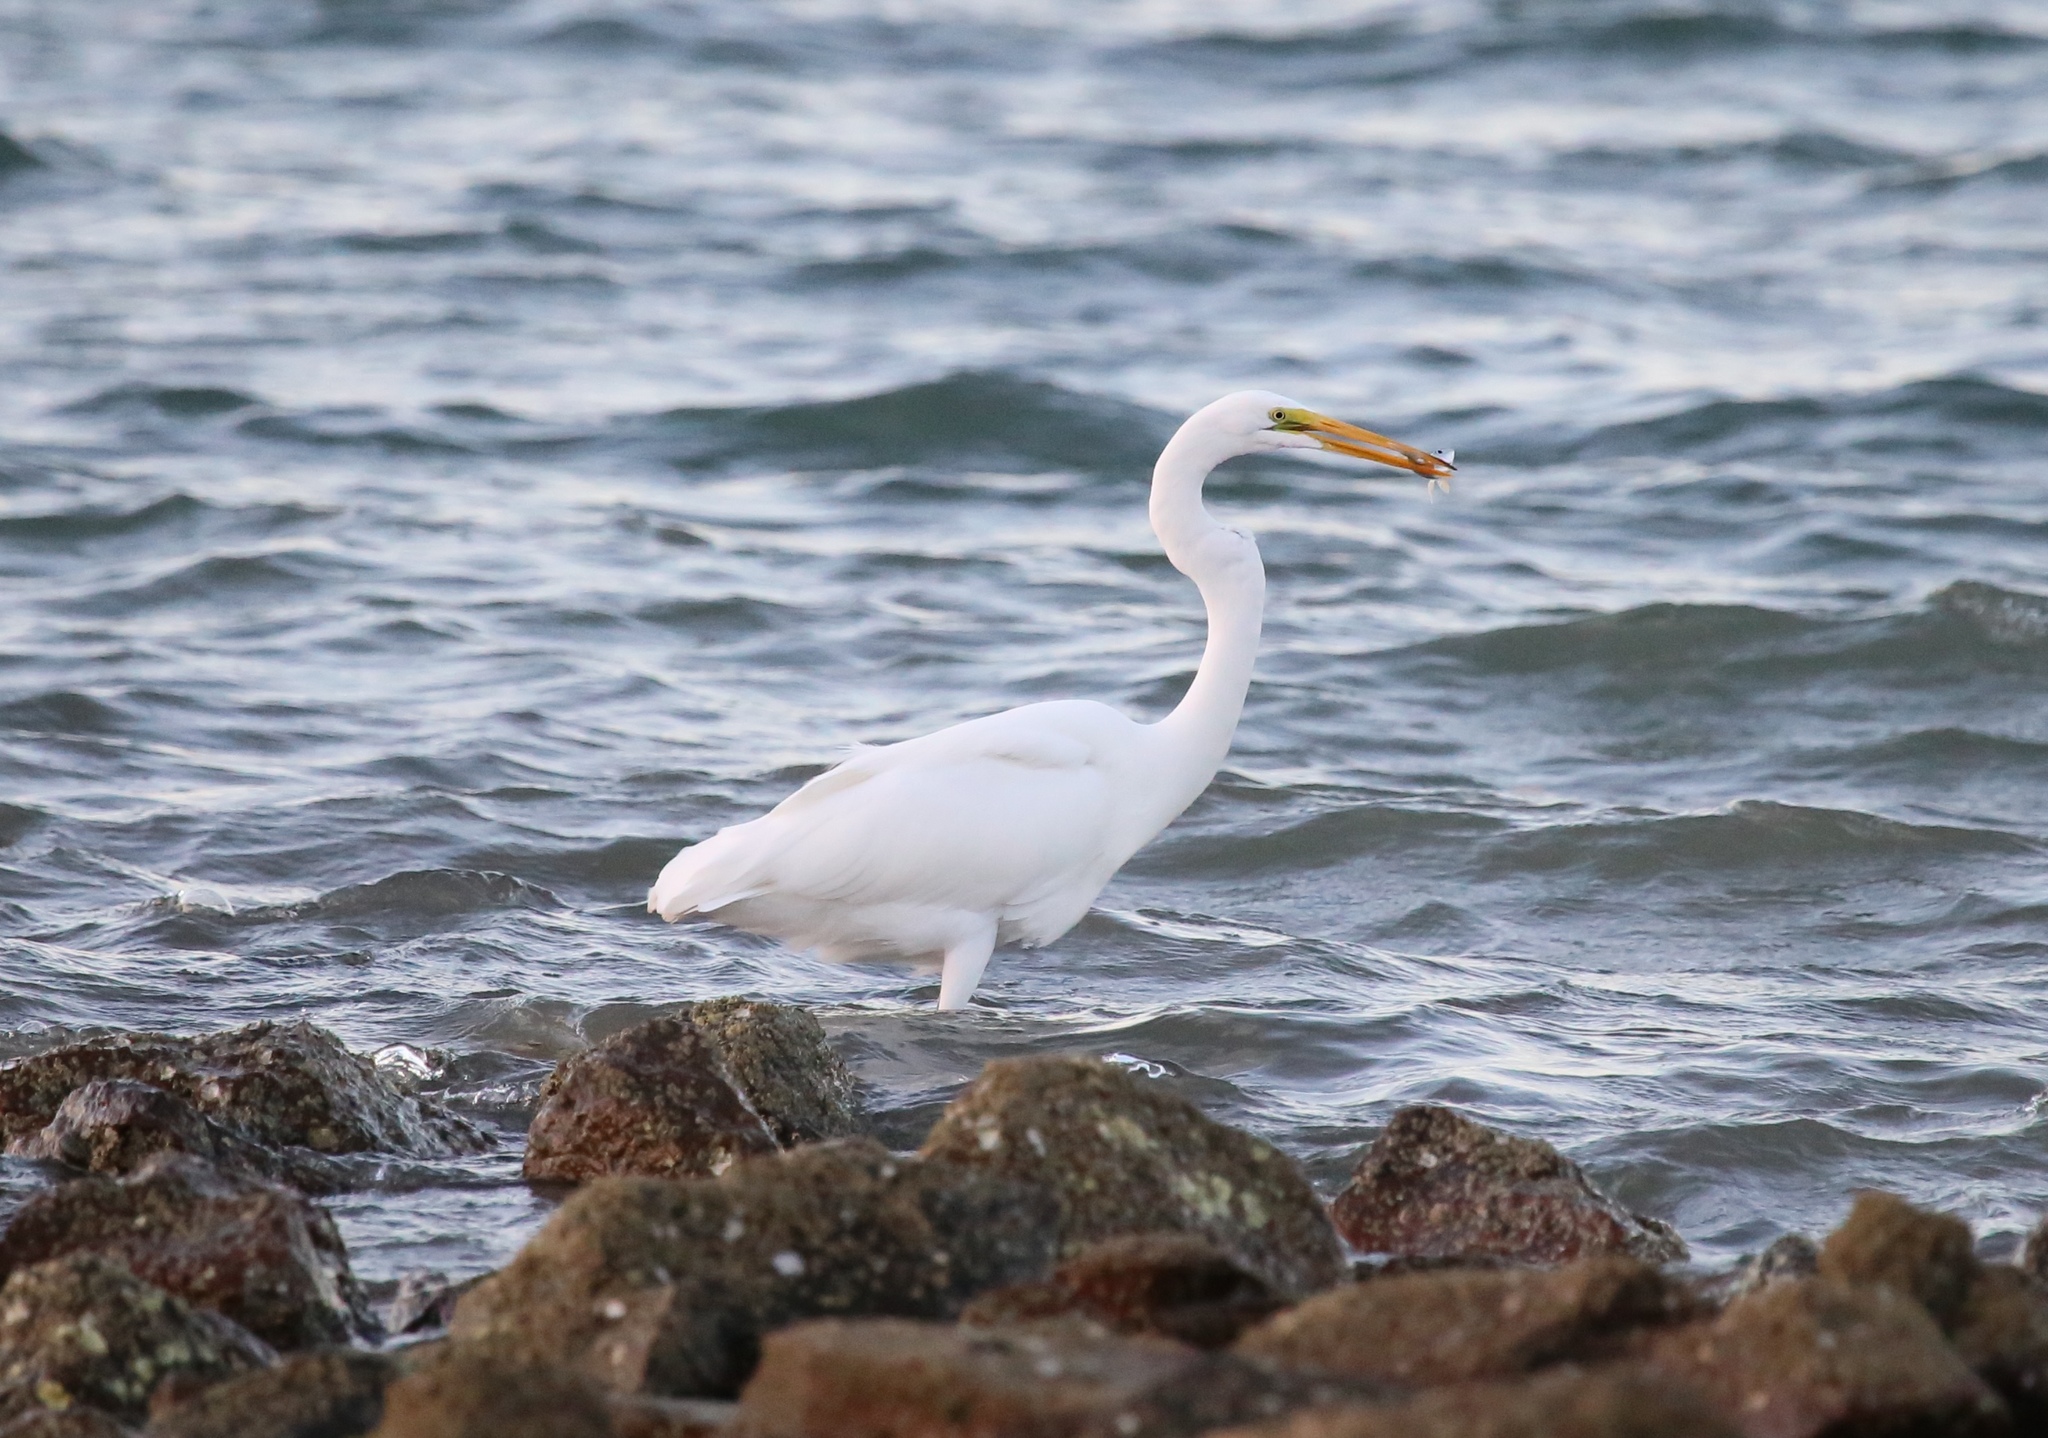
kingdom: Animalia
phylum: Chordata
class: Aves
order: Pelecaniformes
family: Ardeidae
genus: Ardea
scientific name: Ardea alba
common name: Great egret
